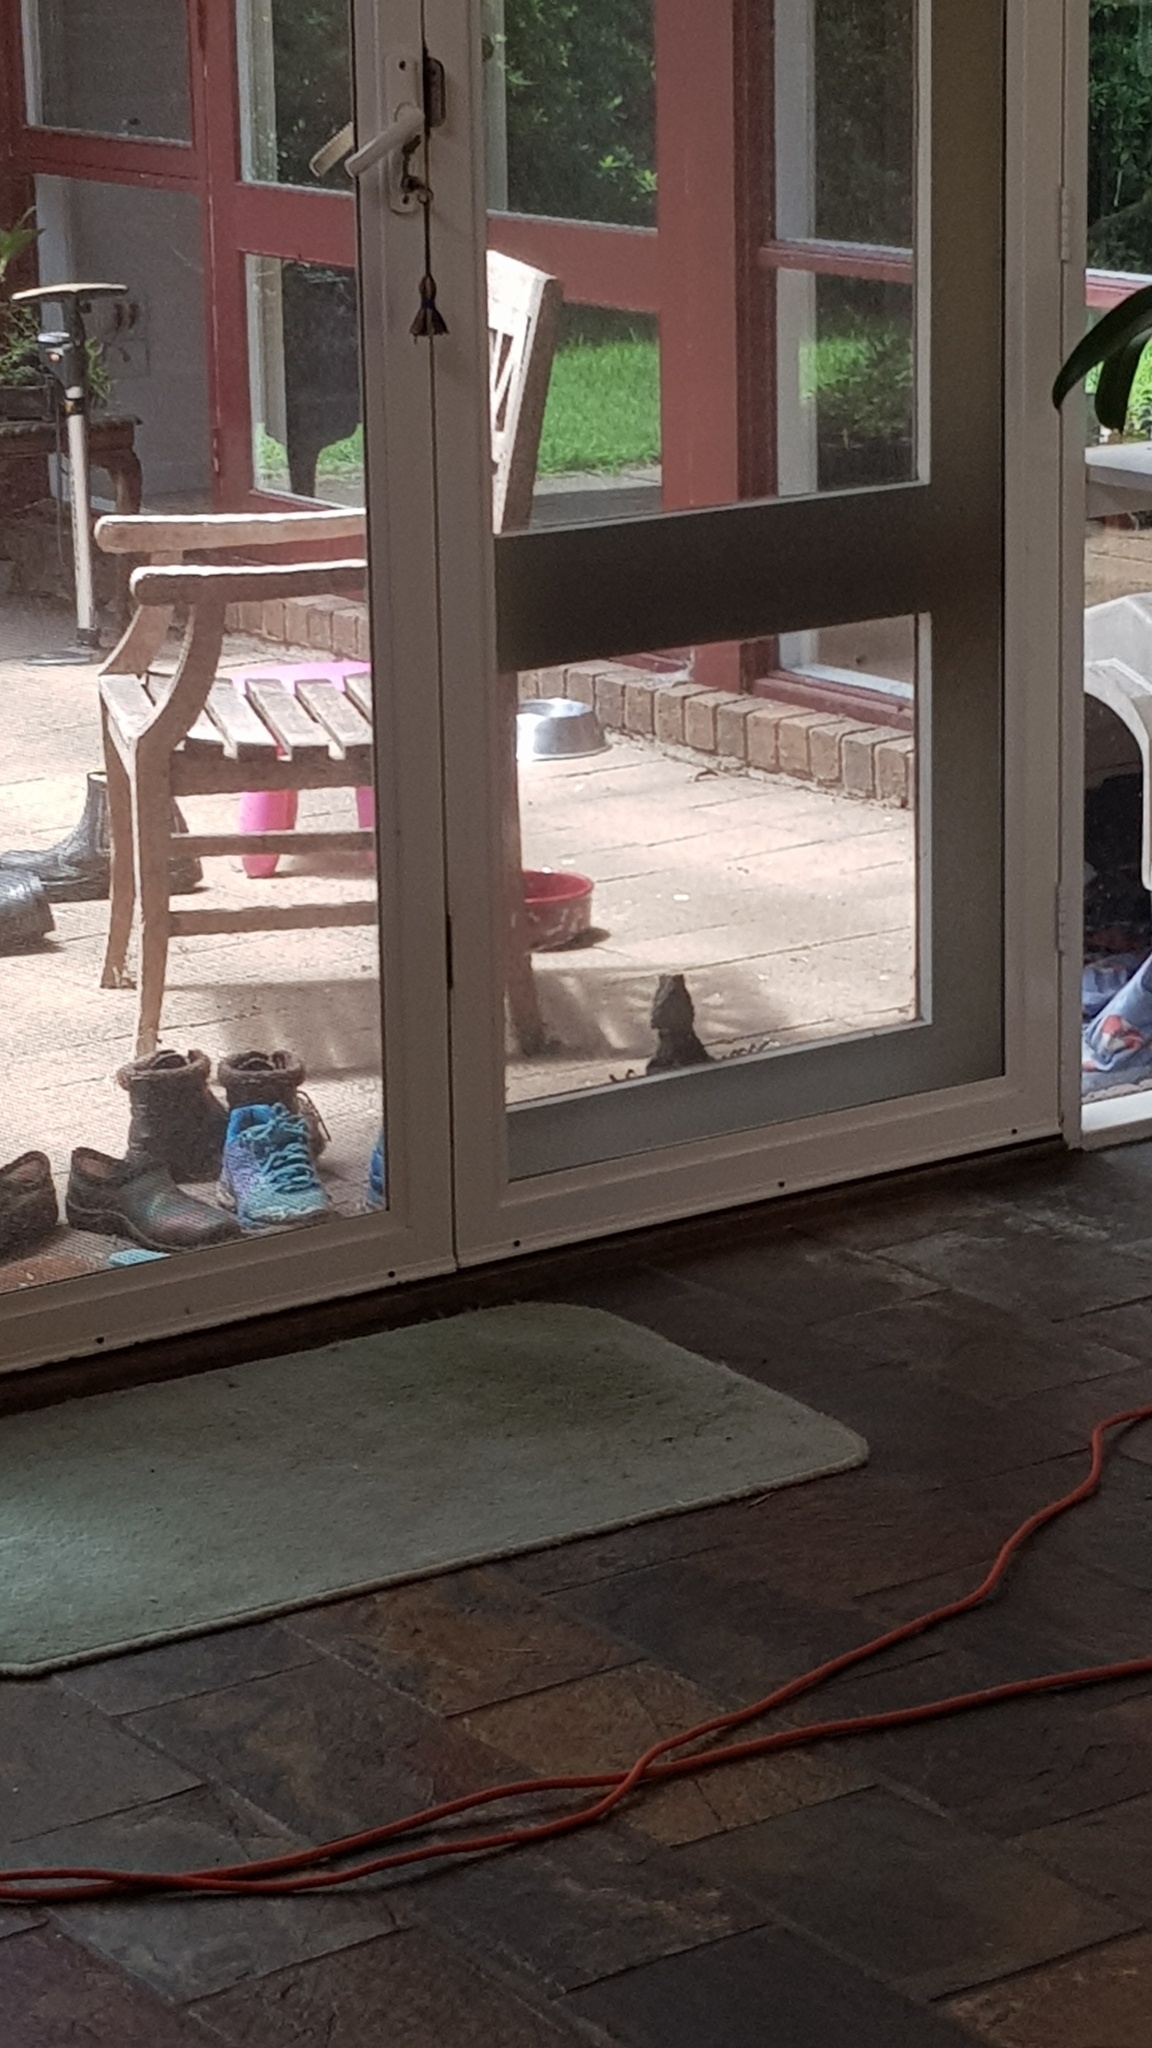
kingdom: Animalia
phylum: Chordata
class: Squamata
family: Agamidae
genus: Intellagama
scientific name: Intellagama lesueurii
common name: Eastern water dragon
